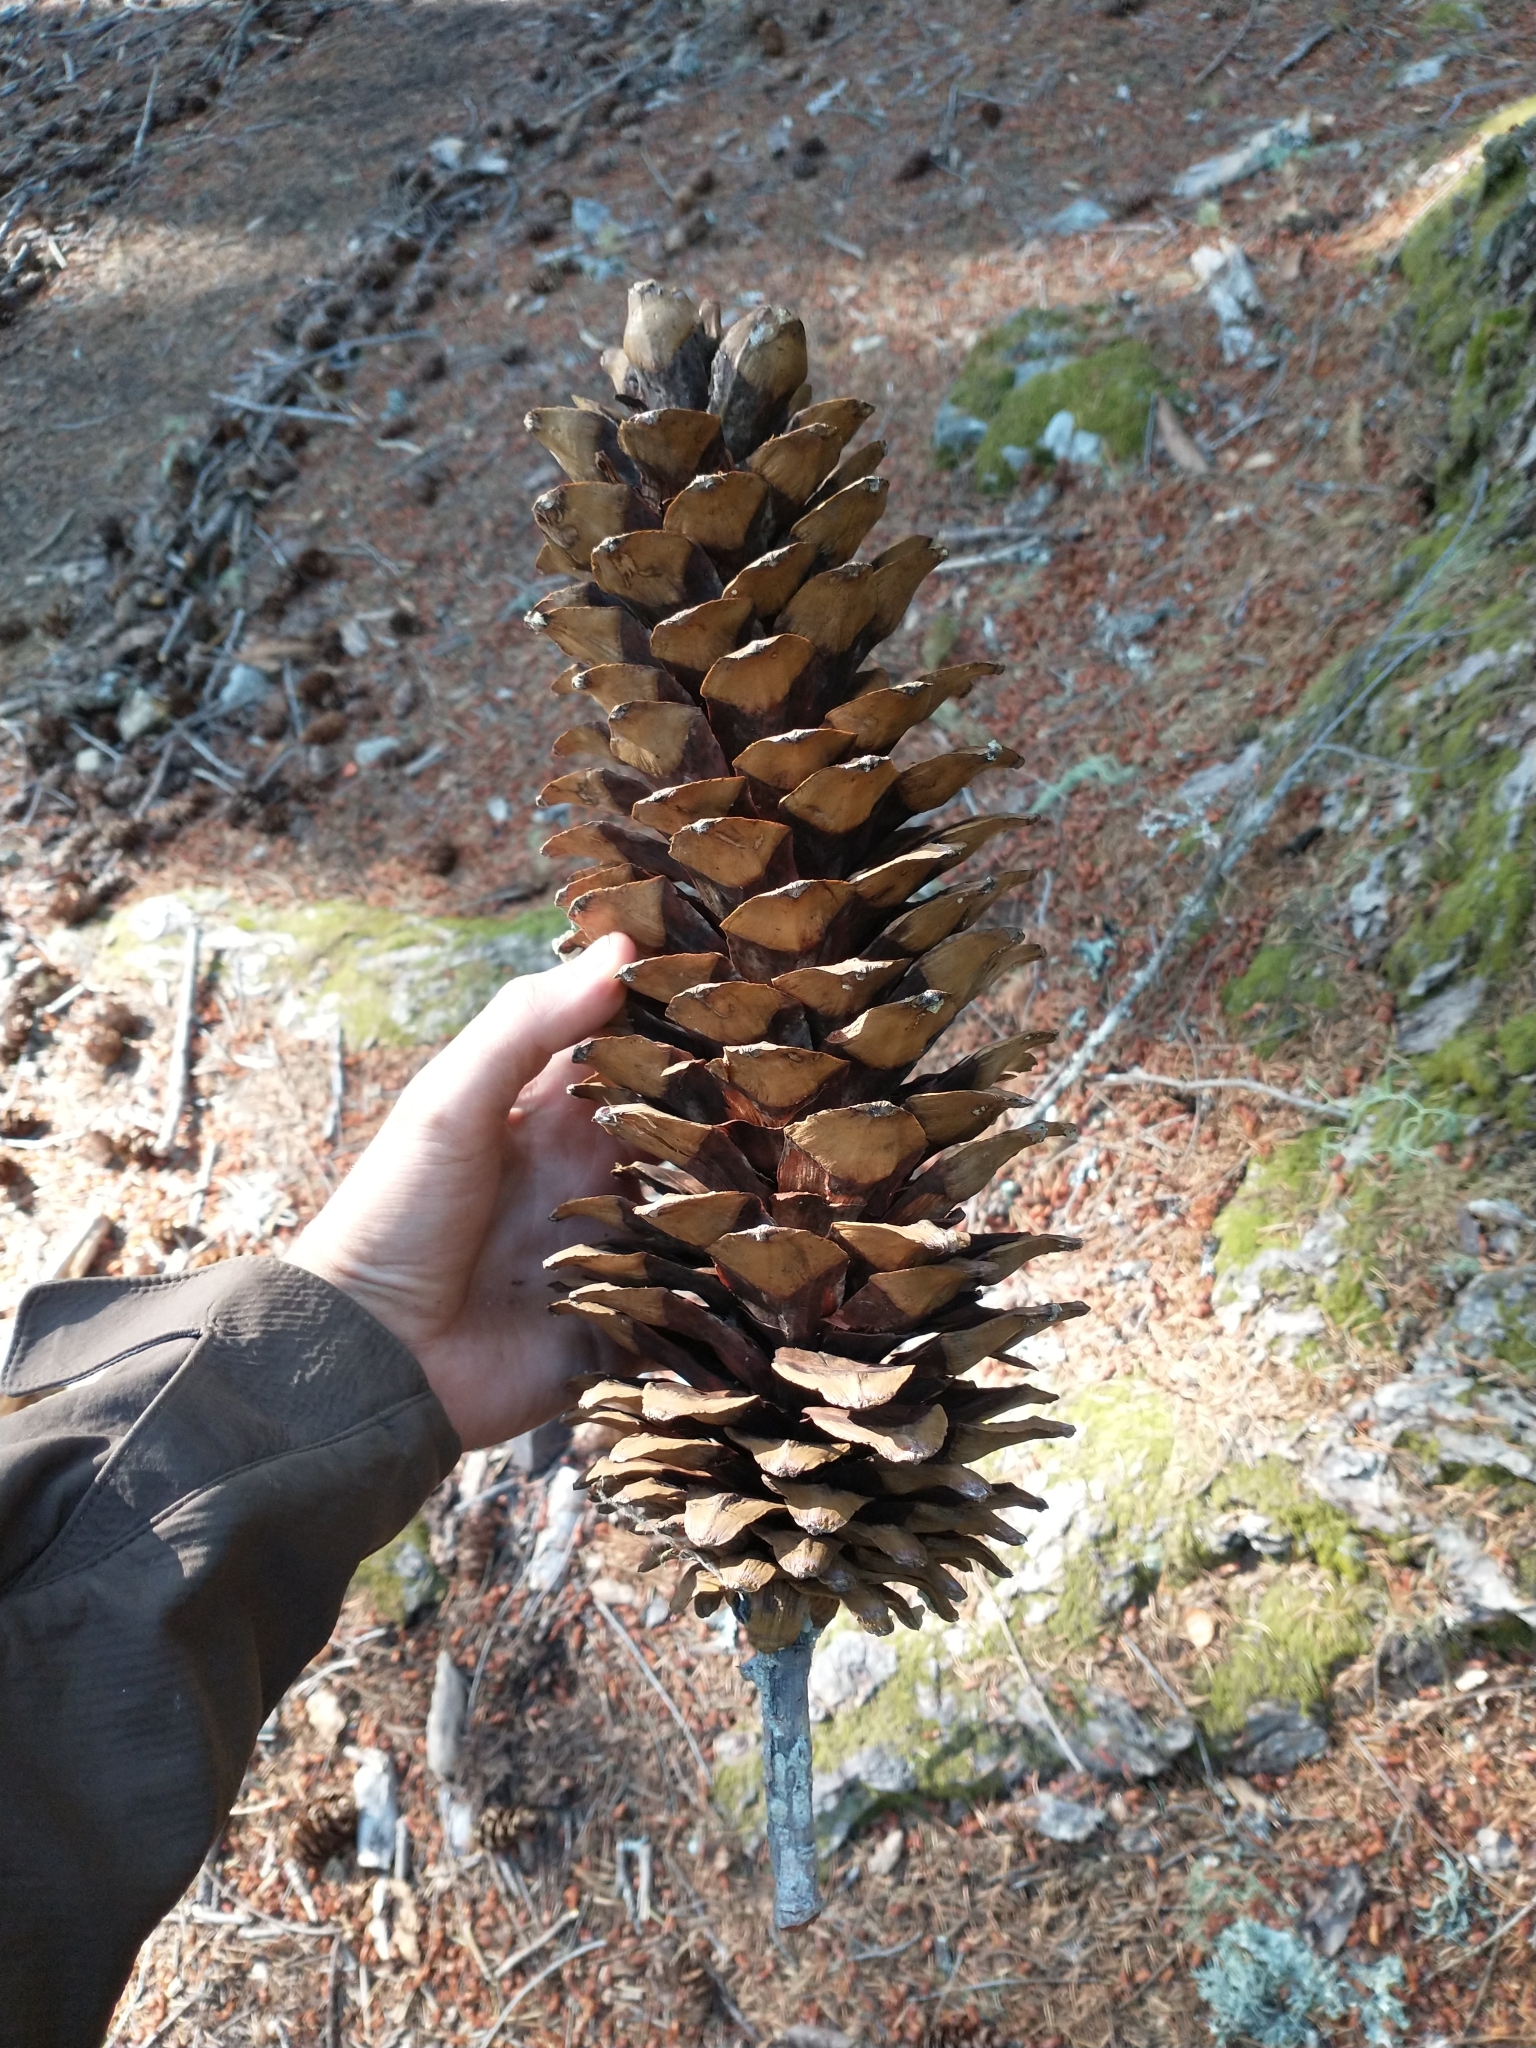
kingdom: Plantae
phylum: Tracheophyta
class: Pinopsida
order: Pinales
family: Pinaceae
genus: Pinus
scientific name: Pinus lambertiana
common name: Sugar pine
